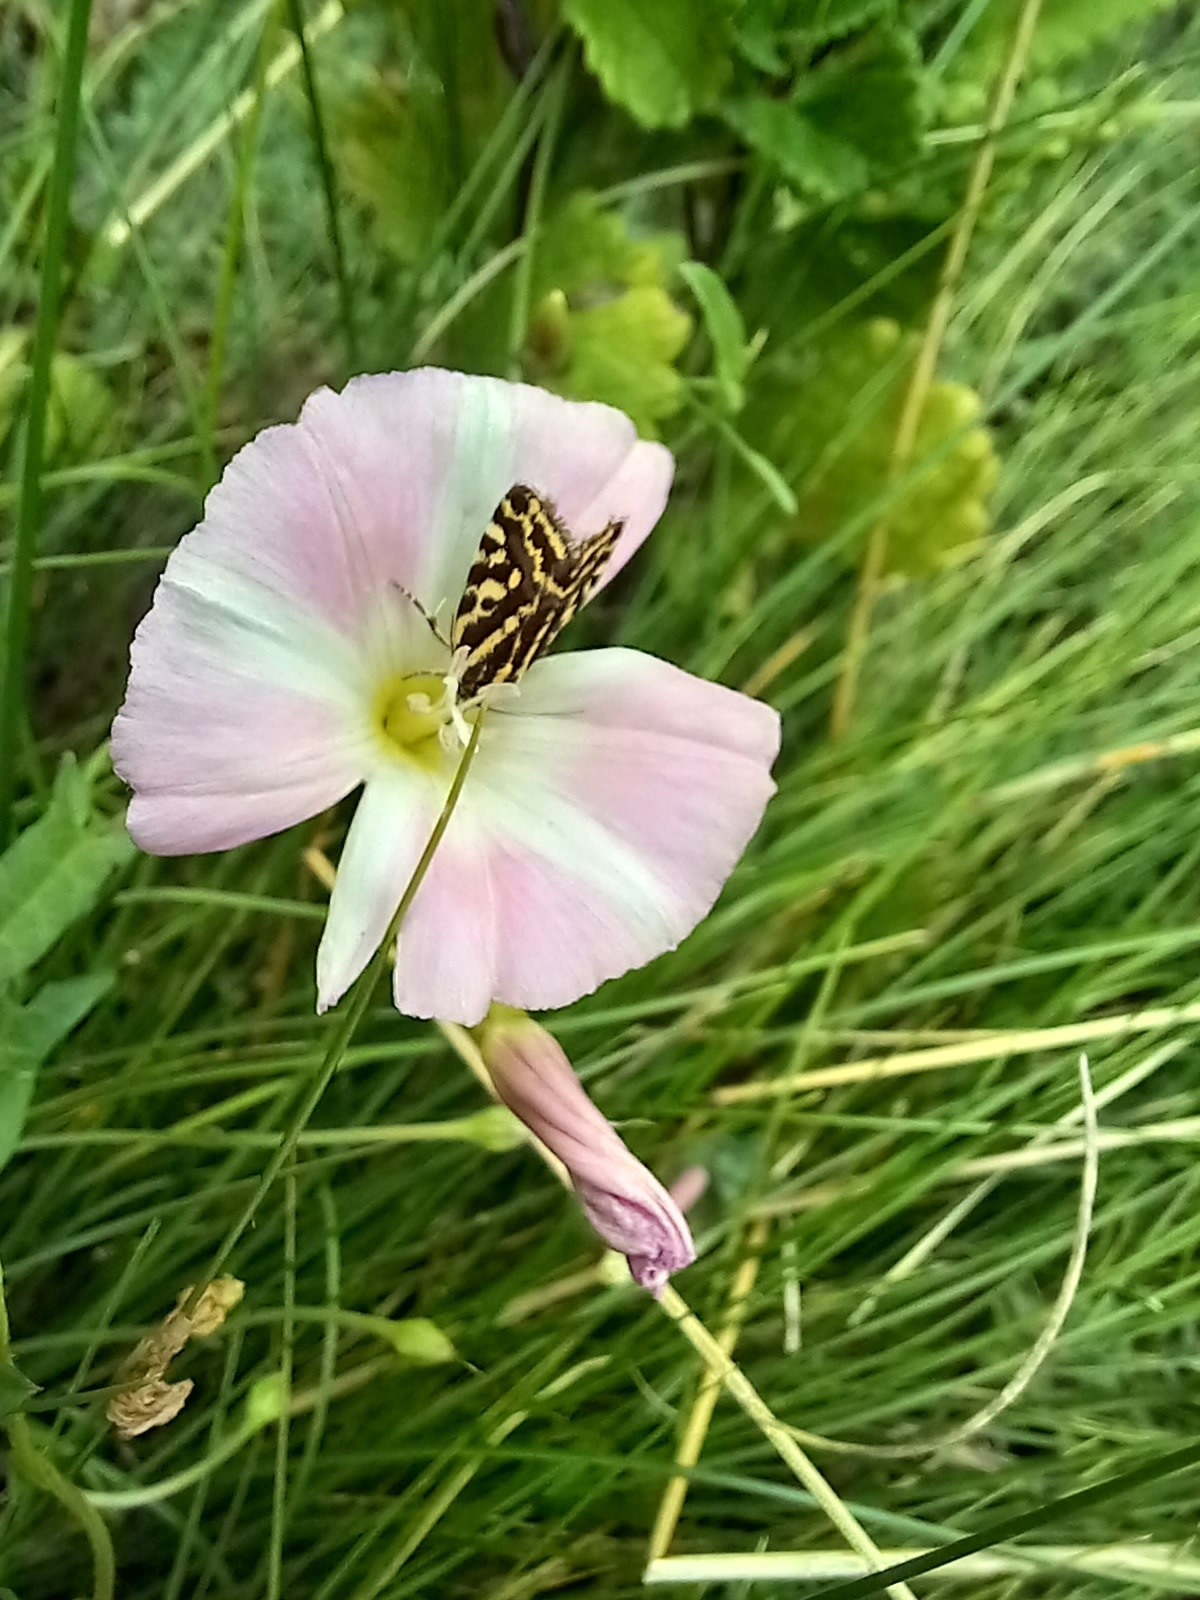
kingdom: Animalia
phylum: Arthropoda
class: Insecta
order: Lepidoptera
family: Noctuidae
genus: Acontia
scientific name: Acontia trabealis
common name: Spotted sulphur
